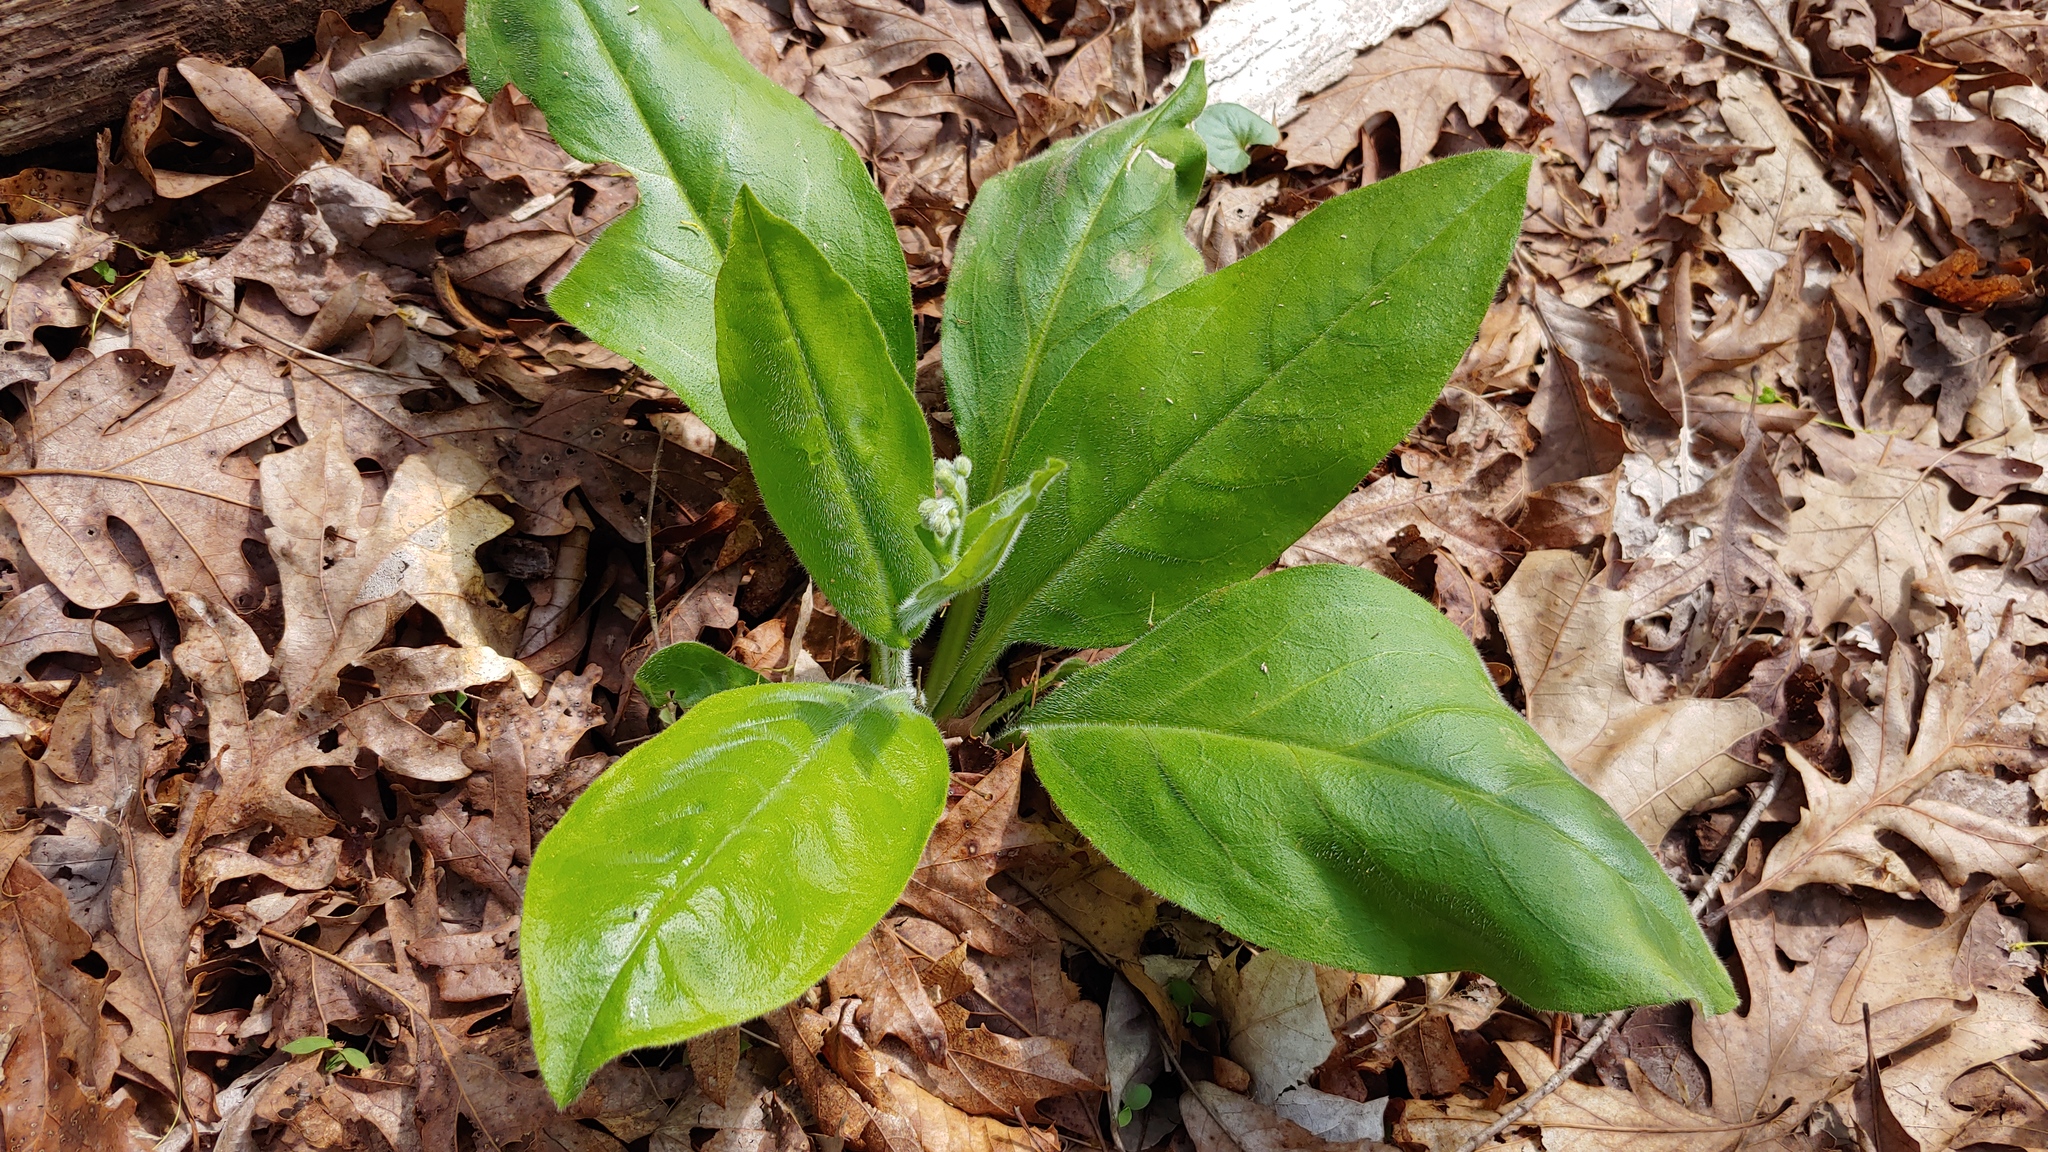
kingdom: Plantae
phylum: Tracheophyta
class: Magnoliopsida
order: Boraginales
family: Boraginaceae
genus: Andersonglossum
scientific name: Andersonglossum virginianum
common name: Wild comfrey
